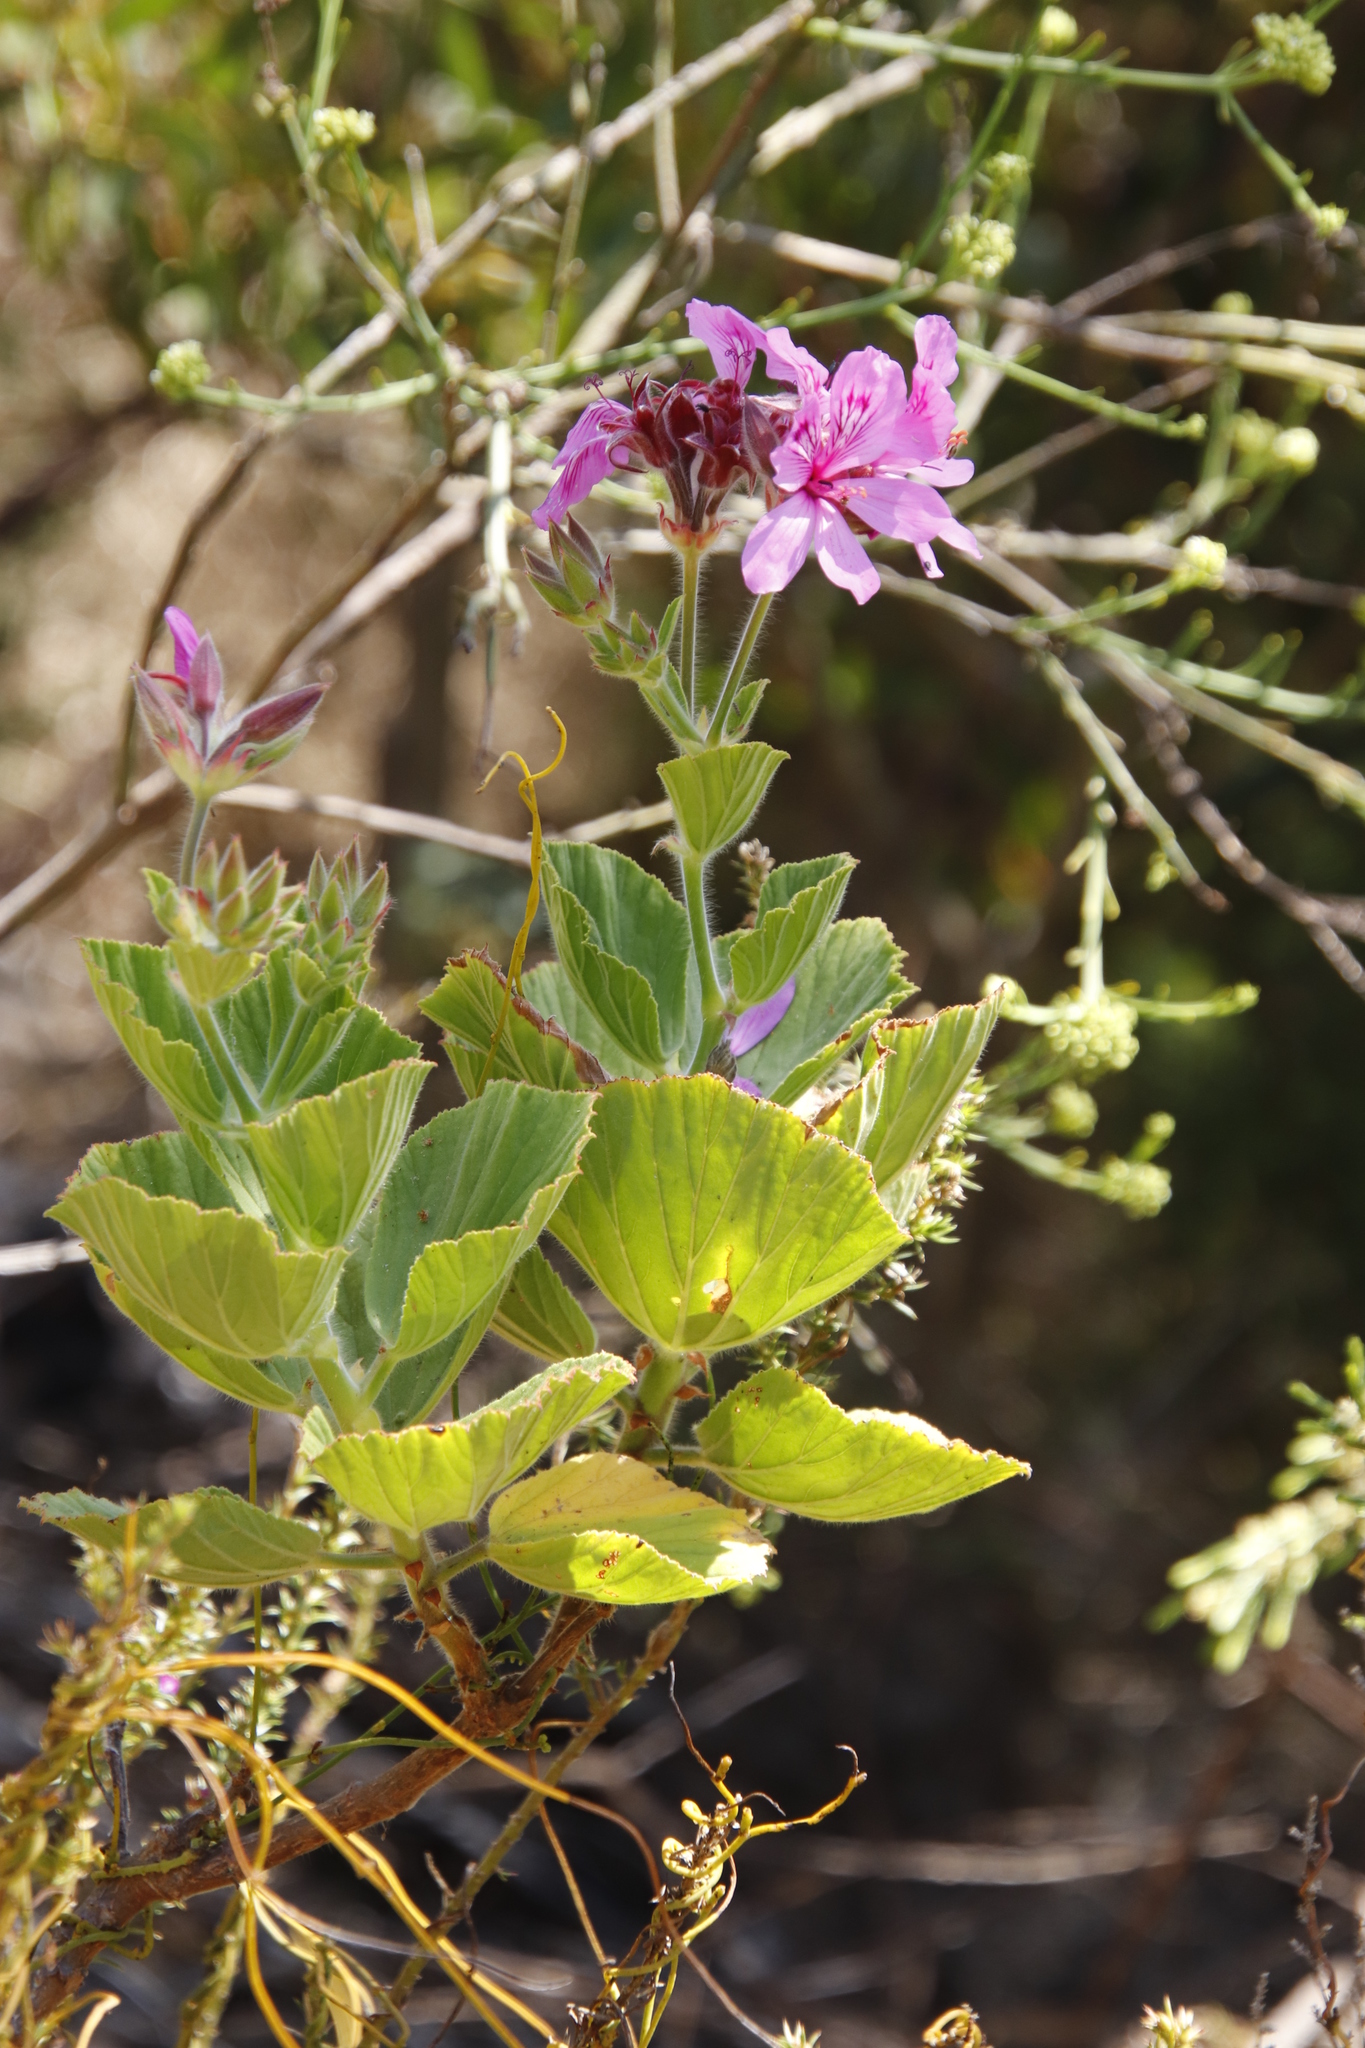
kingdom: Plantae
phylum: Tracheophyta
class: Magnoliopsida
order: Geraniales
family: Geraniaceae
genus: Pelargonium
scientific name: Pelargonium cucullatum
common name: Tree pelargonium
